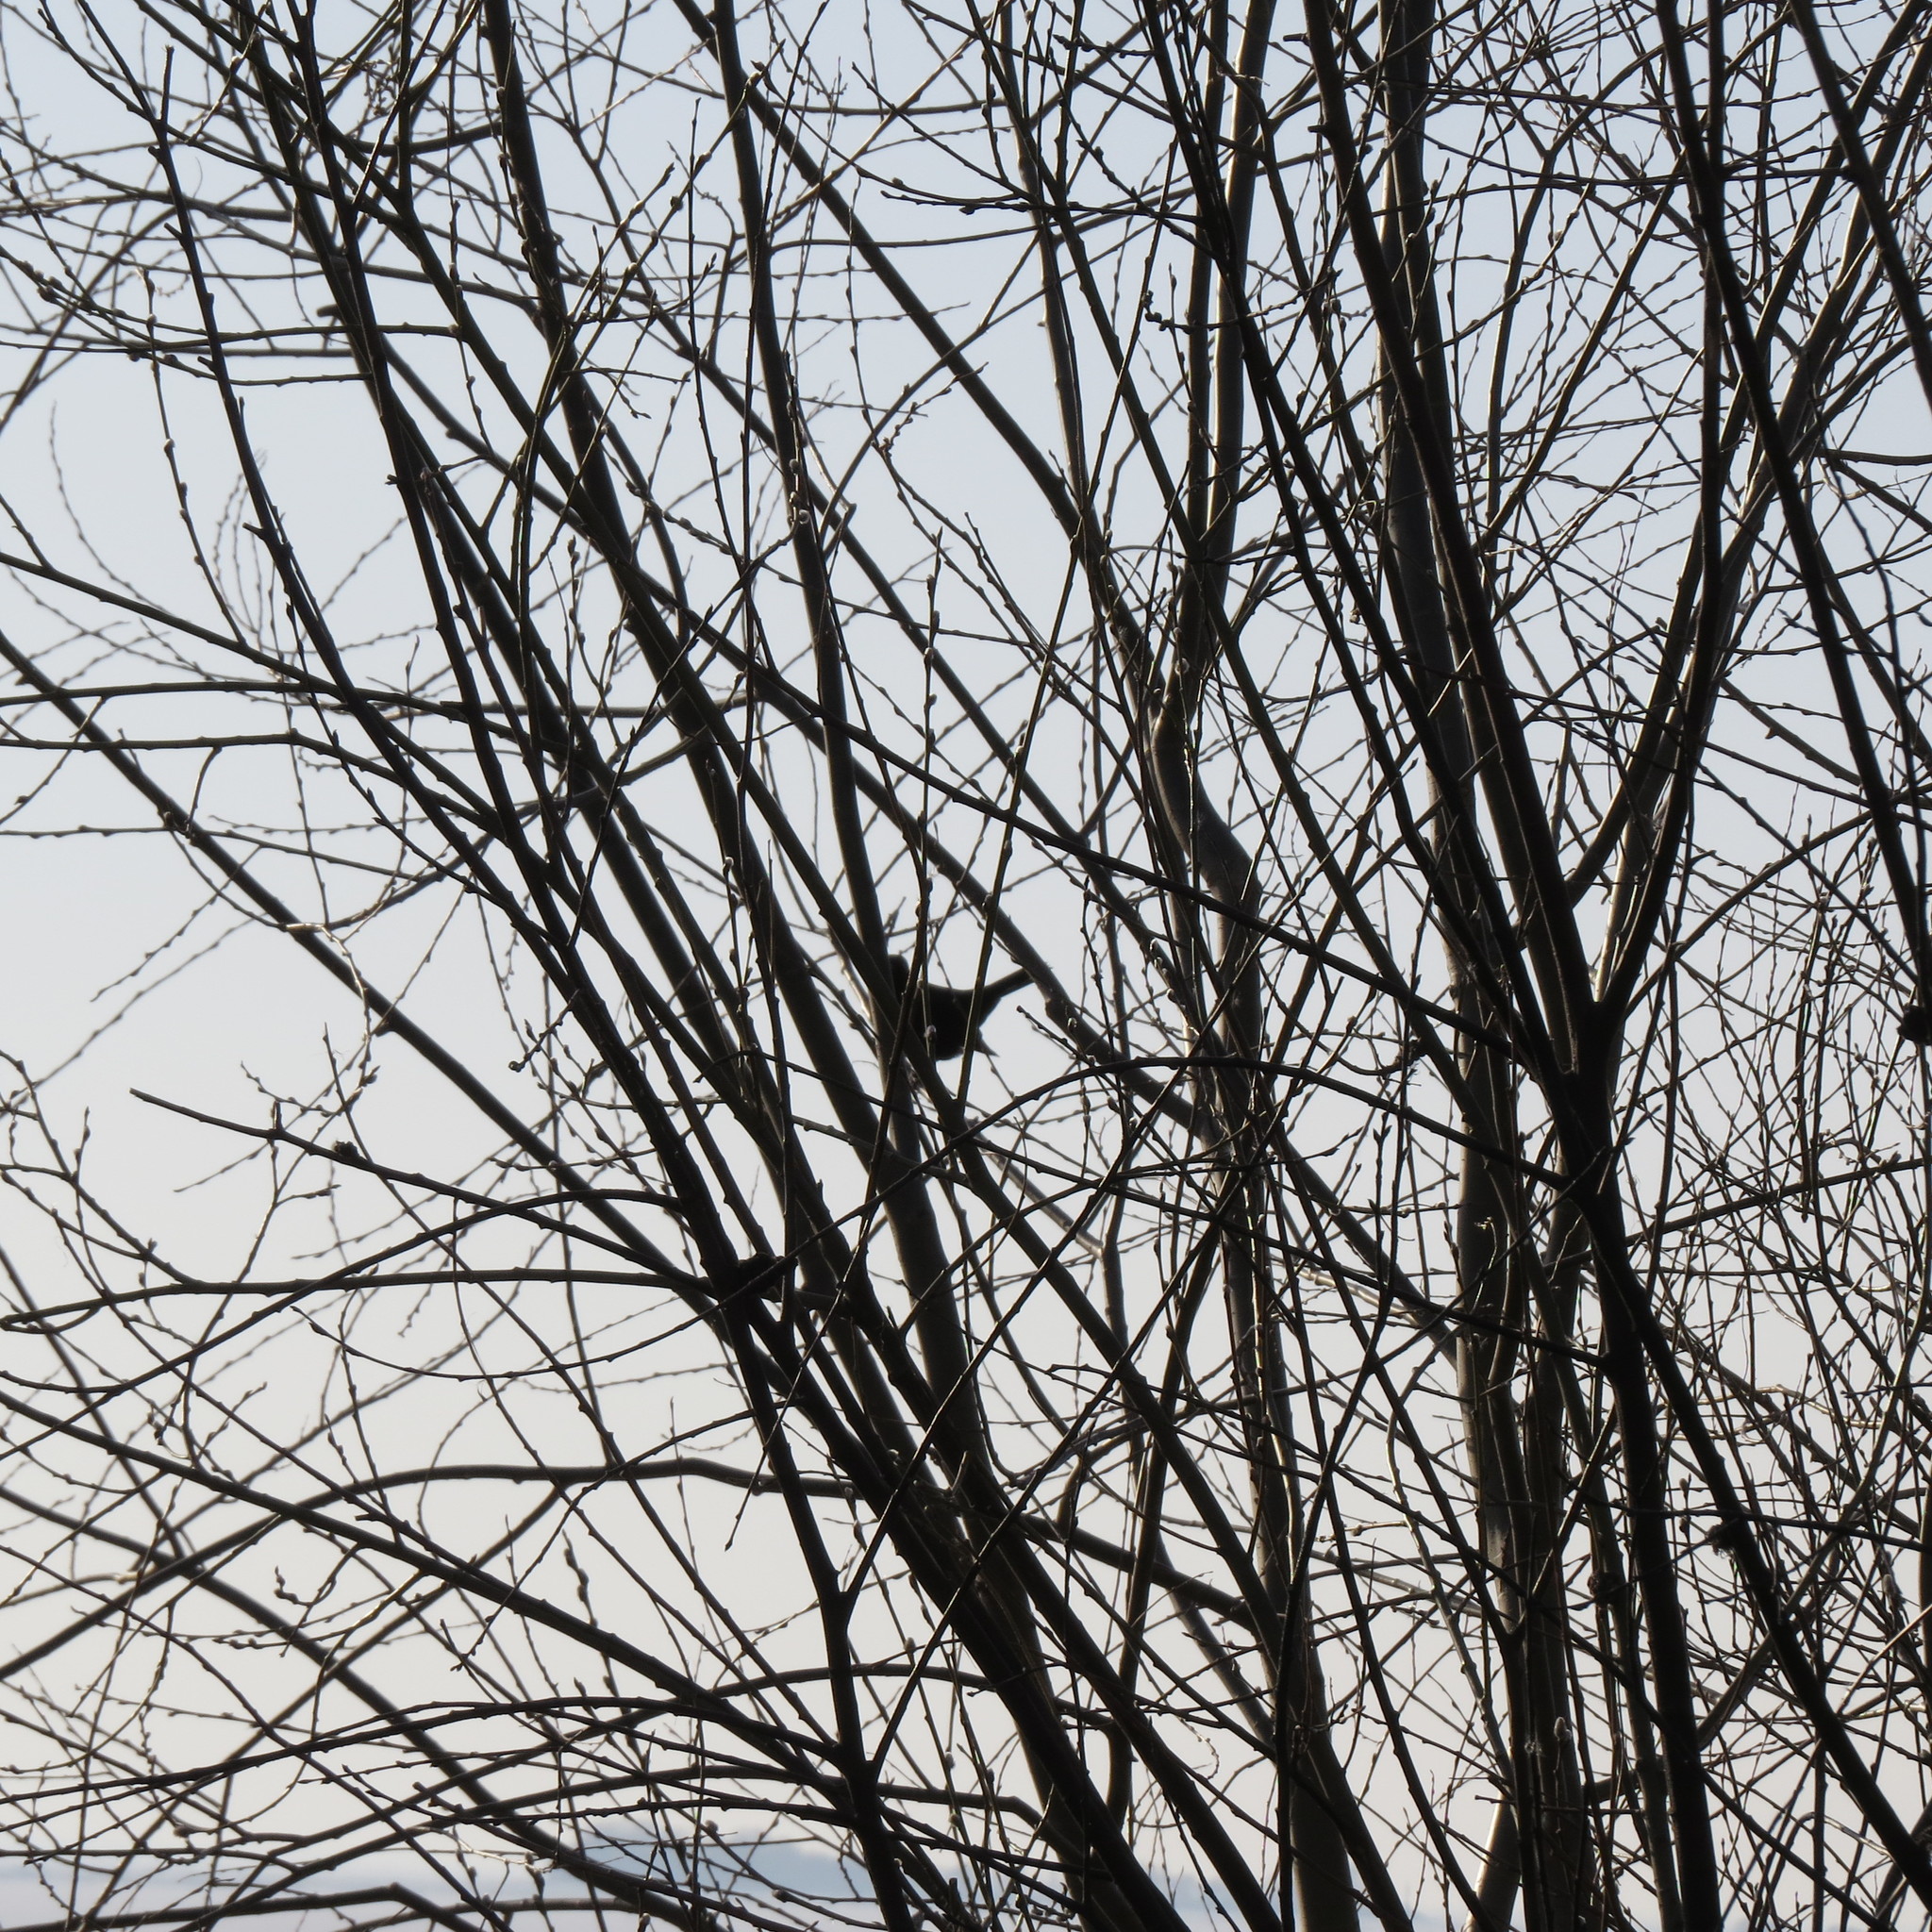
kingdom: Animalia
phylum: Chordata
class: Aves
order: Passeriformes
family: Turdidae
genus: Turdus
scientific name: Turdus merula
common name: Common blackbird
